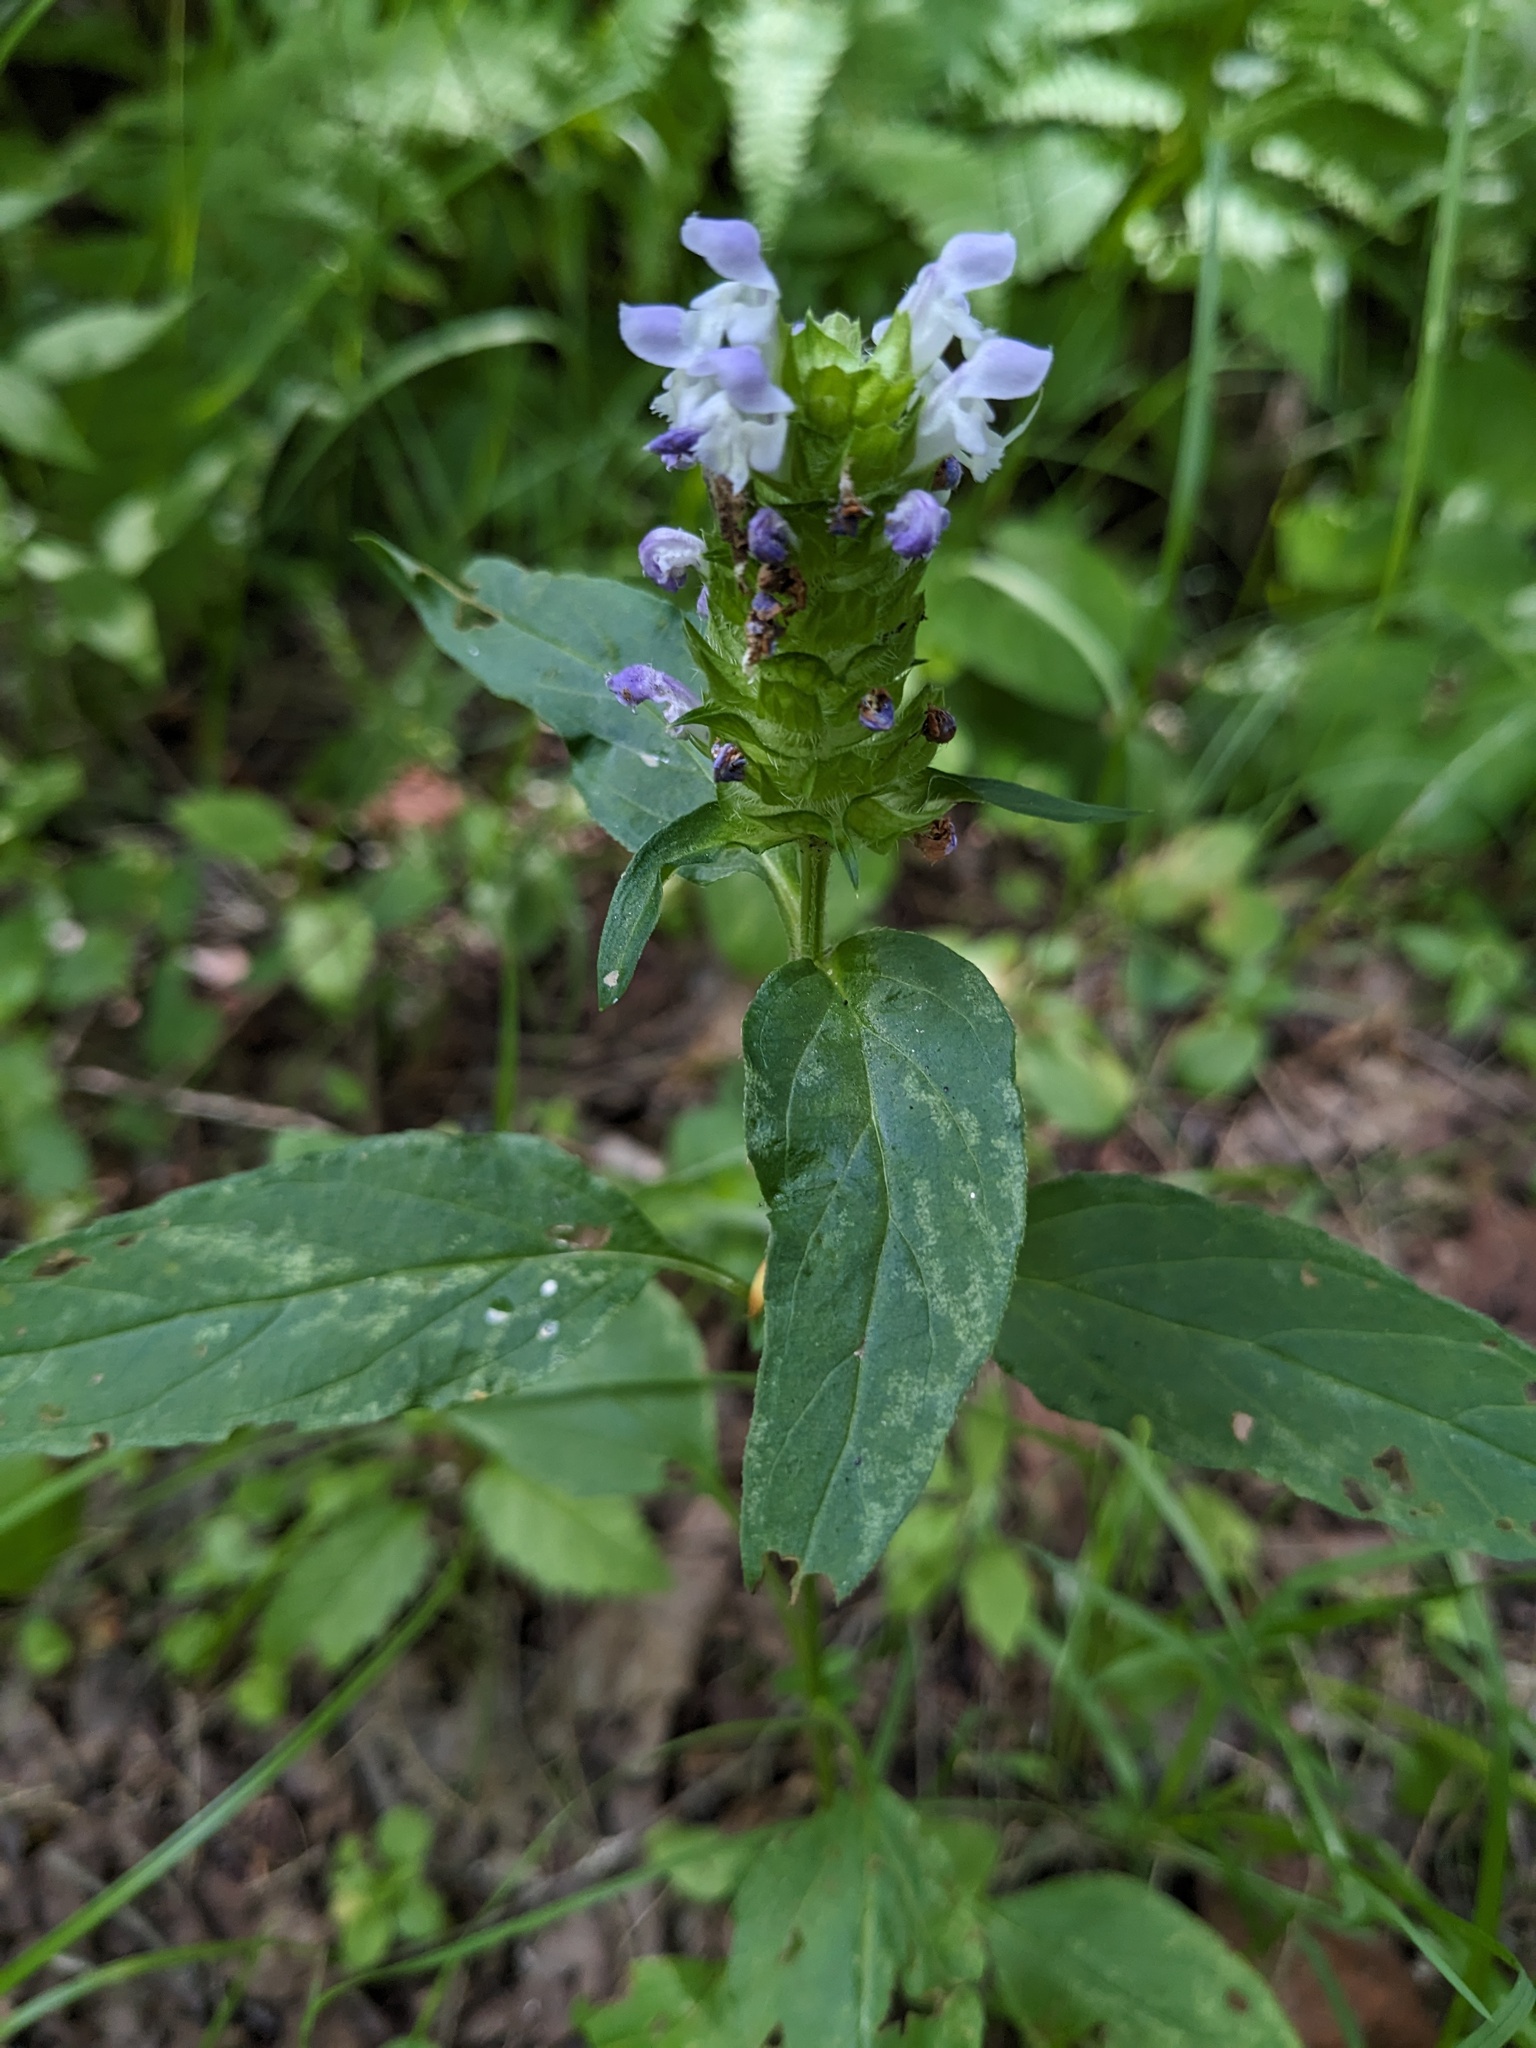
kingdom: Plantae
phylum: Tracheophyta
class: Magnoliopsida
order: Lamiales
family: Lamiaceae
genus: Prunella
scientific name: Prunella vulgaris
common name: Heal-all
